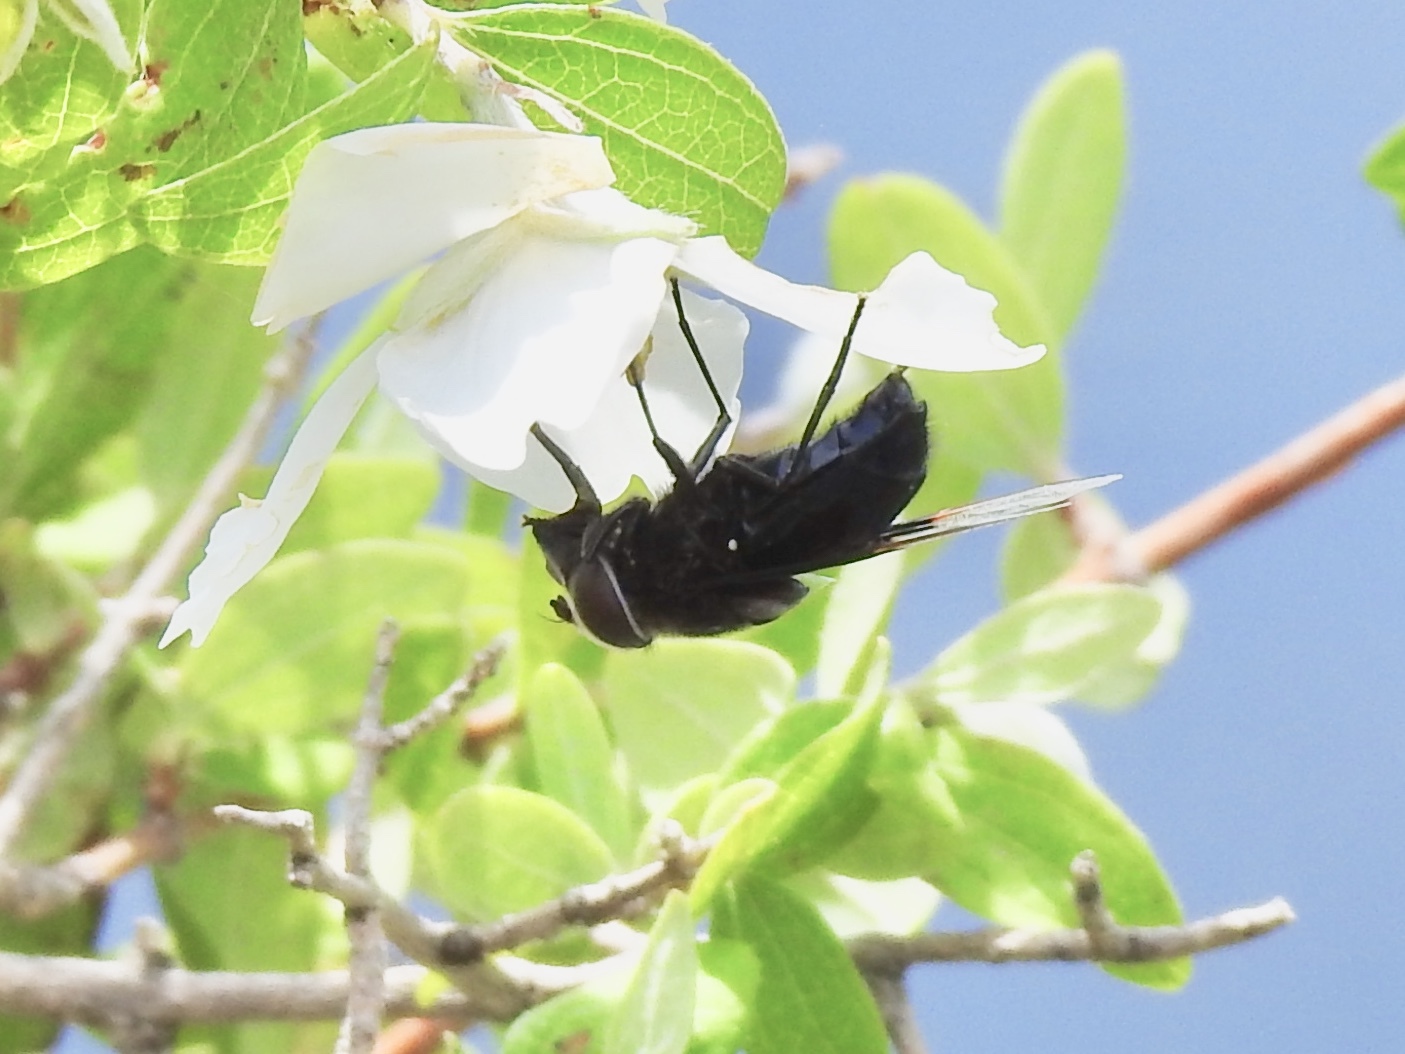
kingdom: Animalia
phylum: Arthropoda
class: Insecta
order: Diptera
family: Syrphidae
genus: Copestylum
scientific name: Copestylum mexicanum
